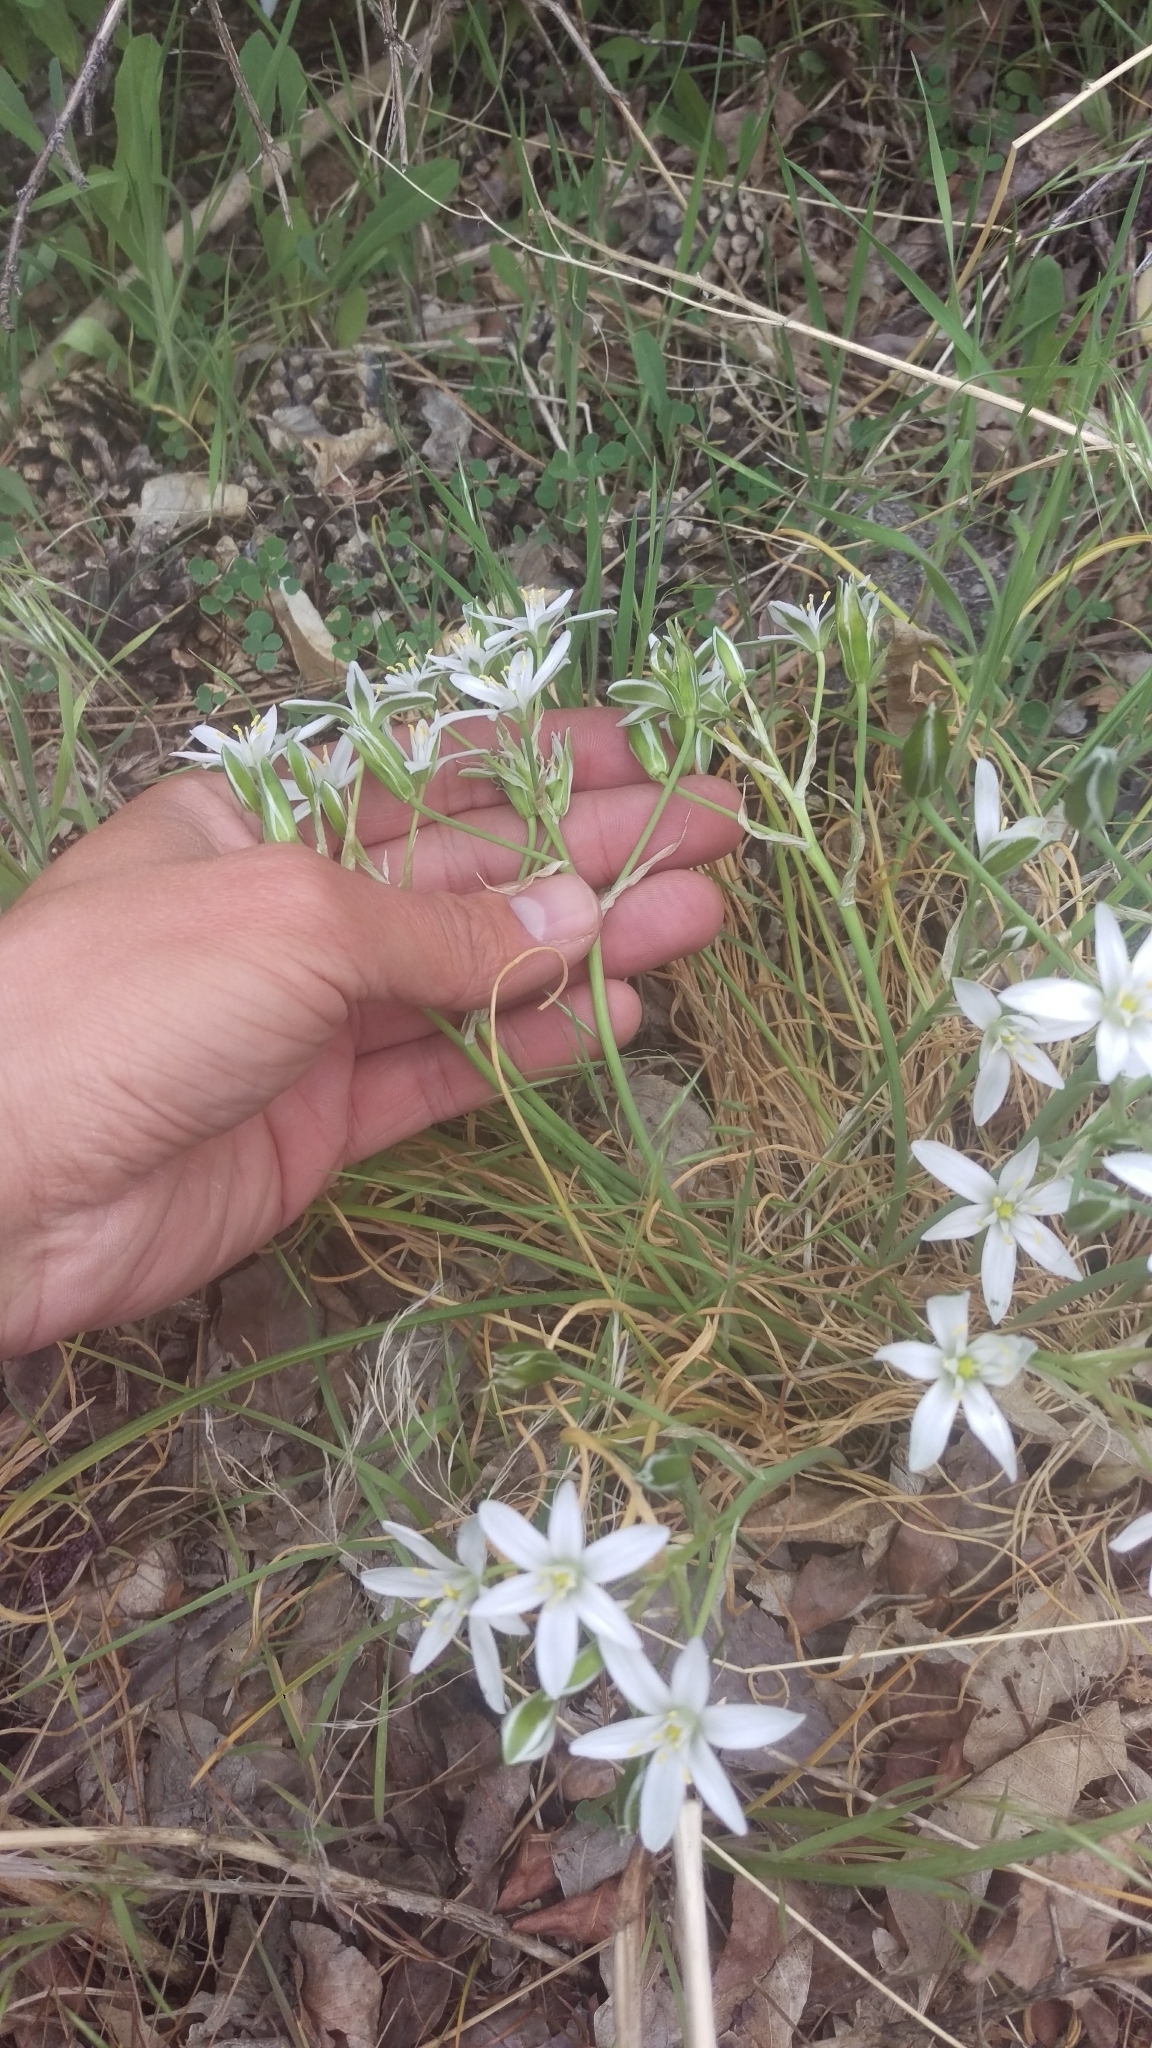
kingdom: Plantae
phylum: Tracheophyta
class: Liliopsida
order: Asparagales
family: Asparagaceae
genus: Ornithogalum
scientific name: Ornithogalum umbellatum
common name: Garden star-of-bethlehem
